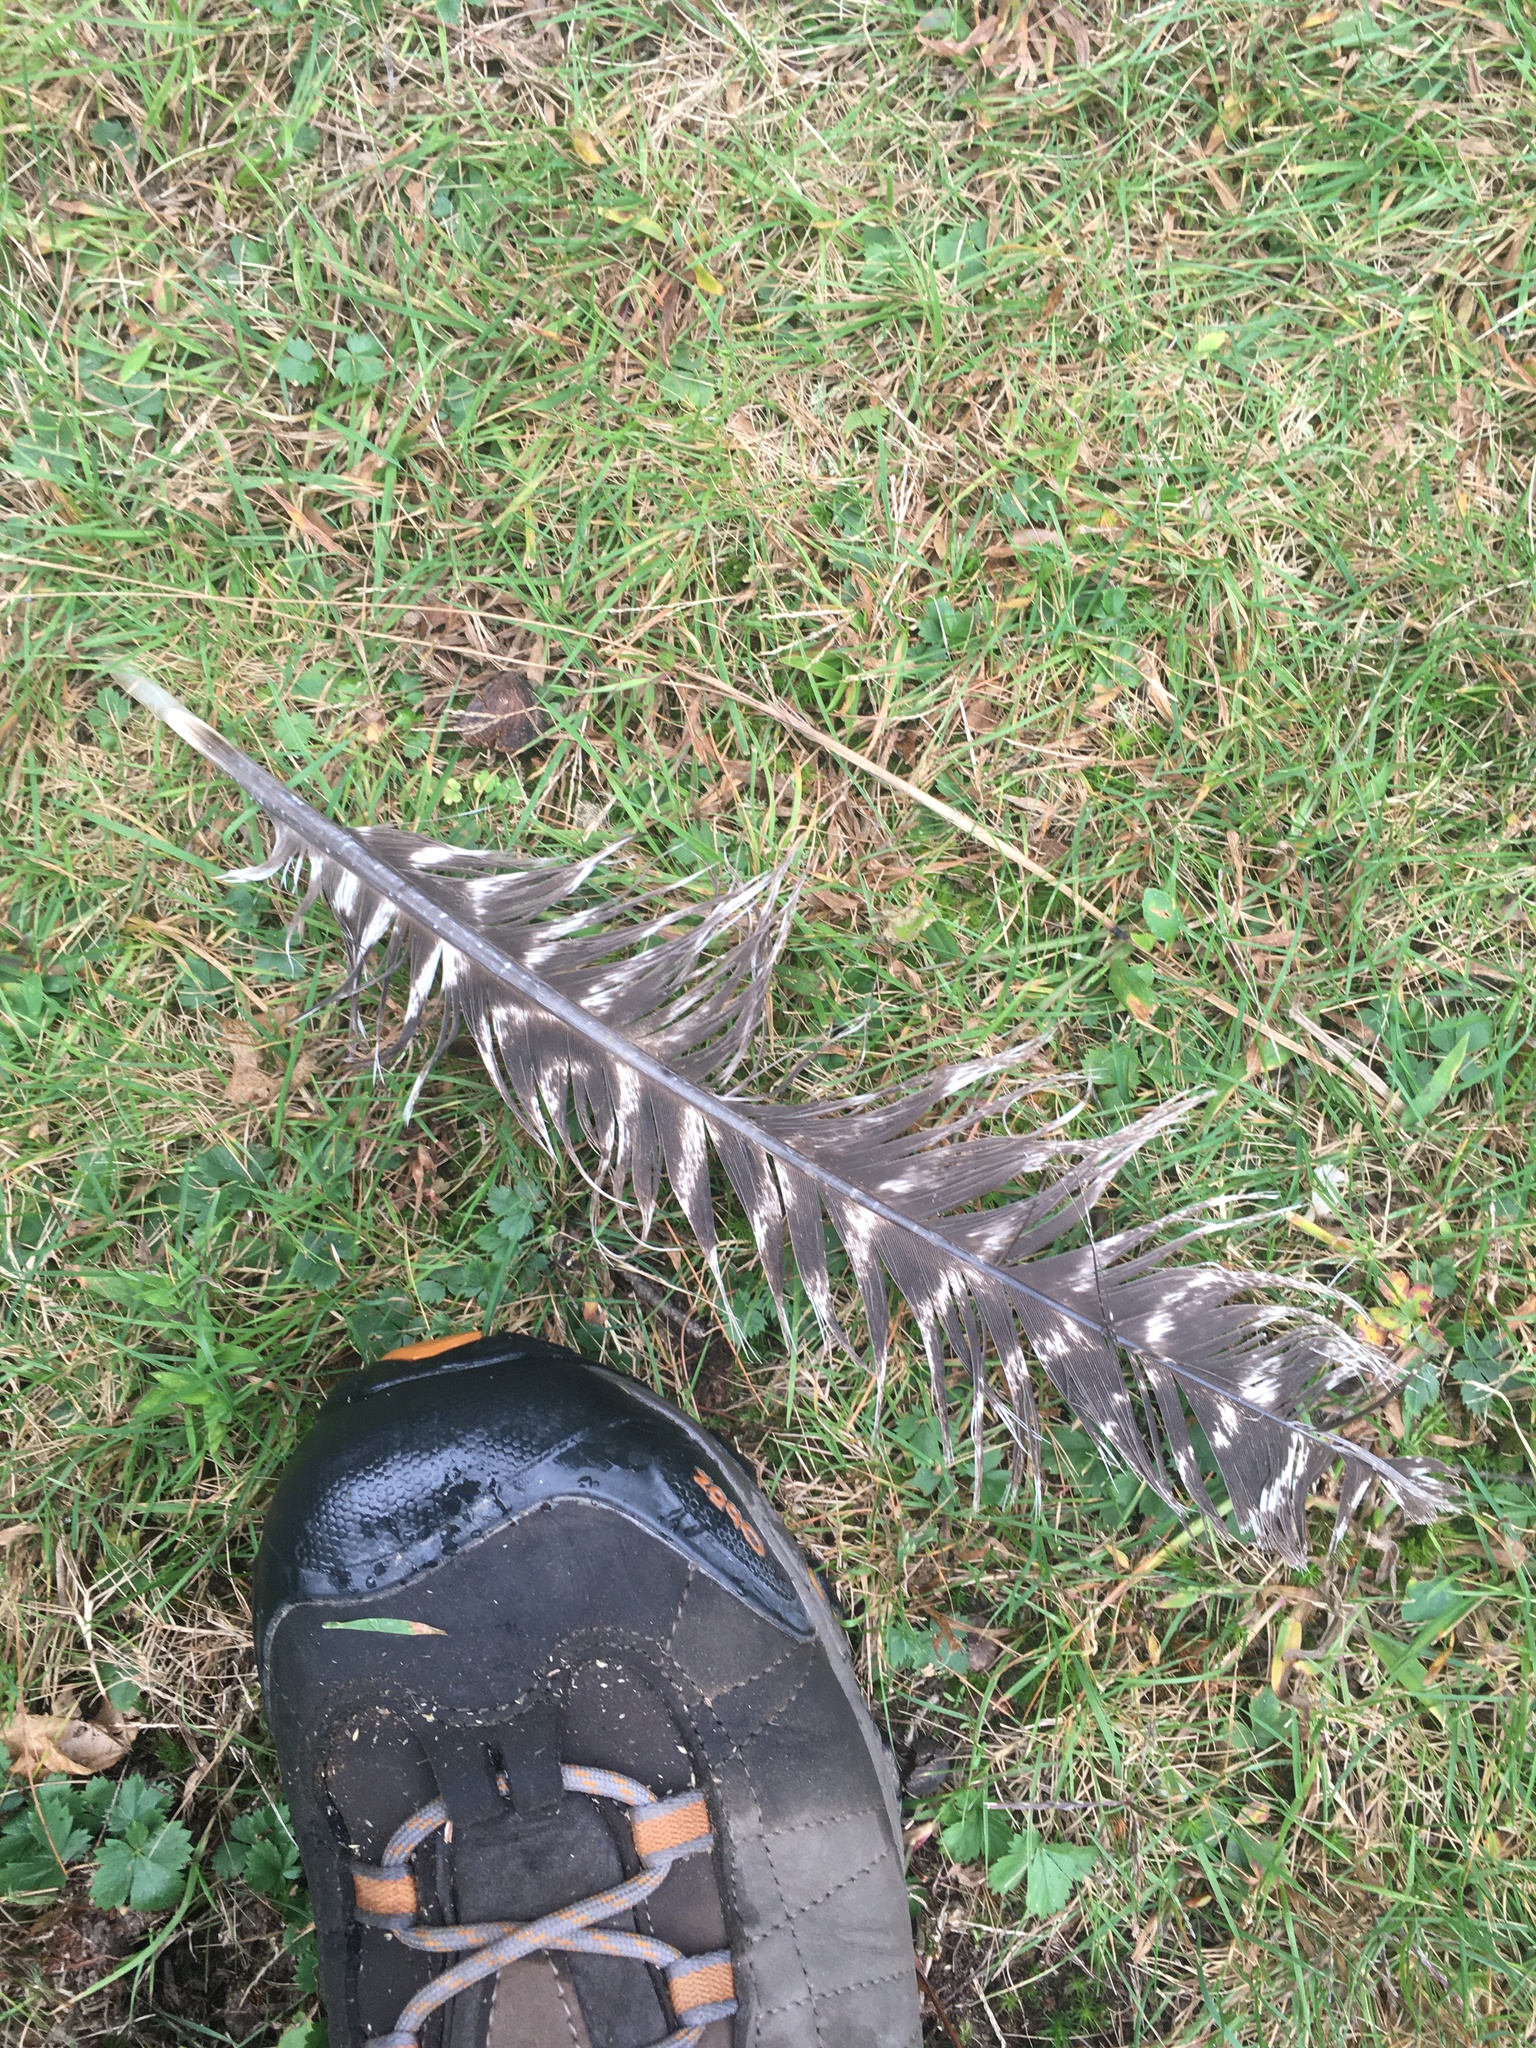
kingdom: Animalia
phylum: Chordata
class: Aves
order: Galliformes
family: Phasianidae
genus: Meleagris
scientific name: Meleagris gallopavo
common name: Wild turkey
